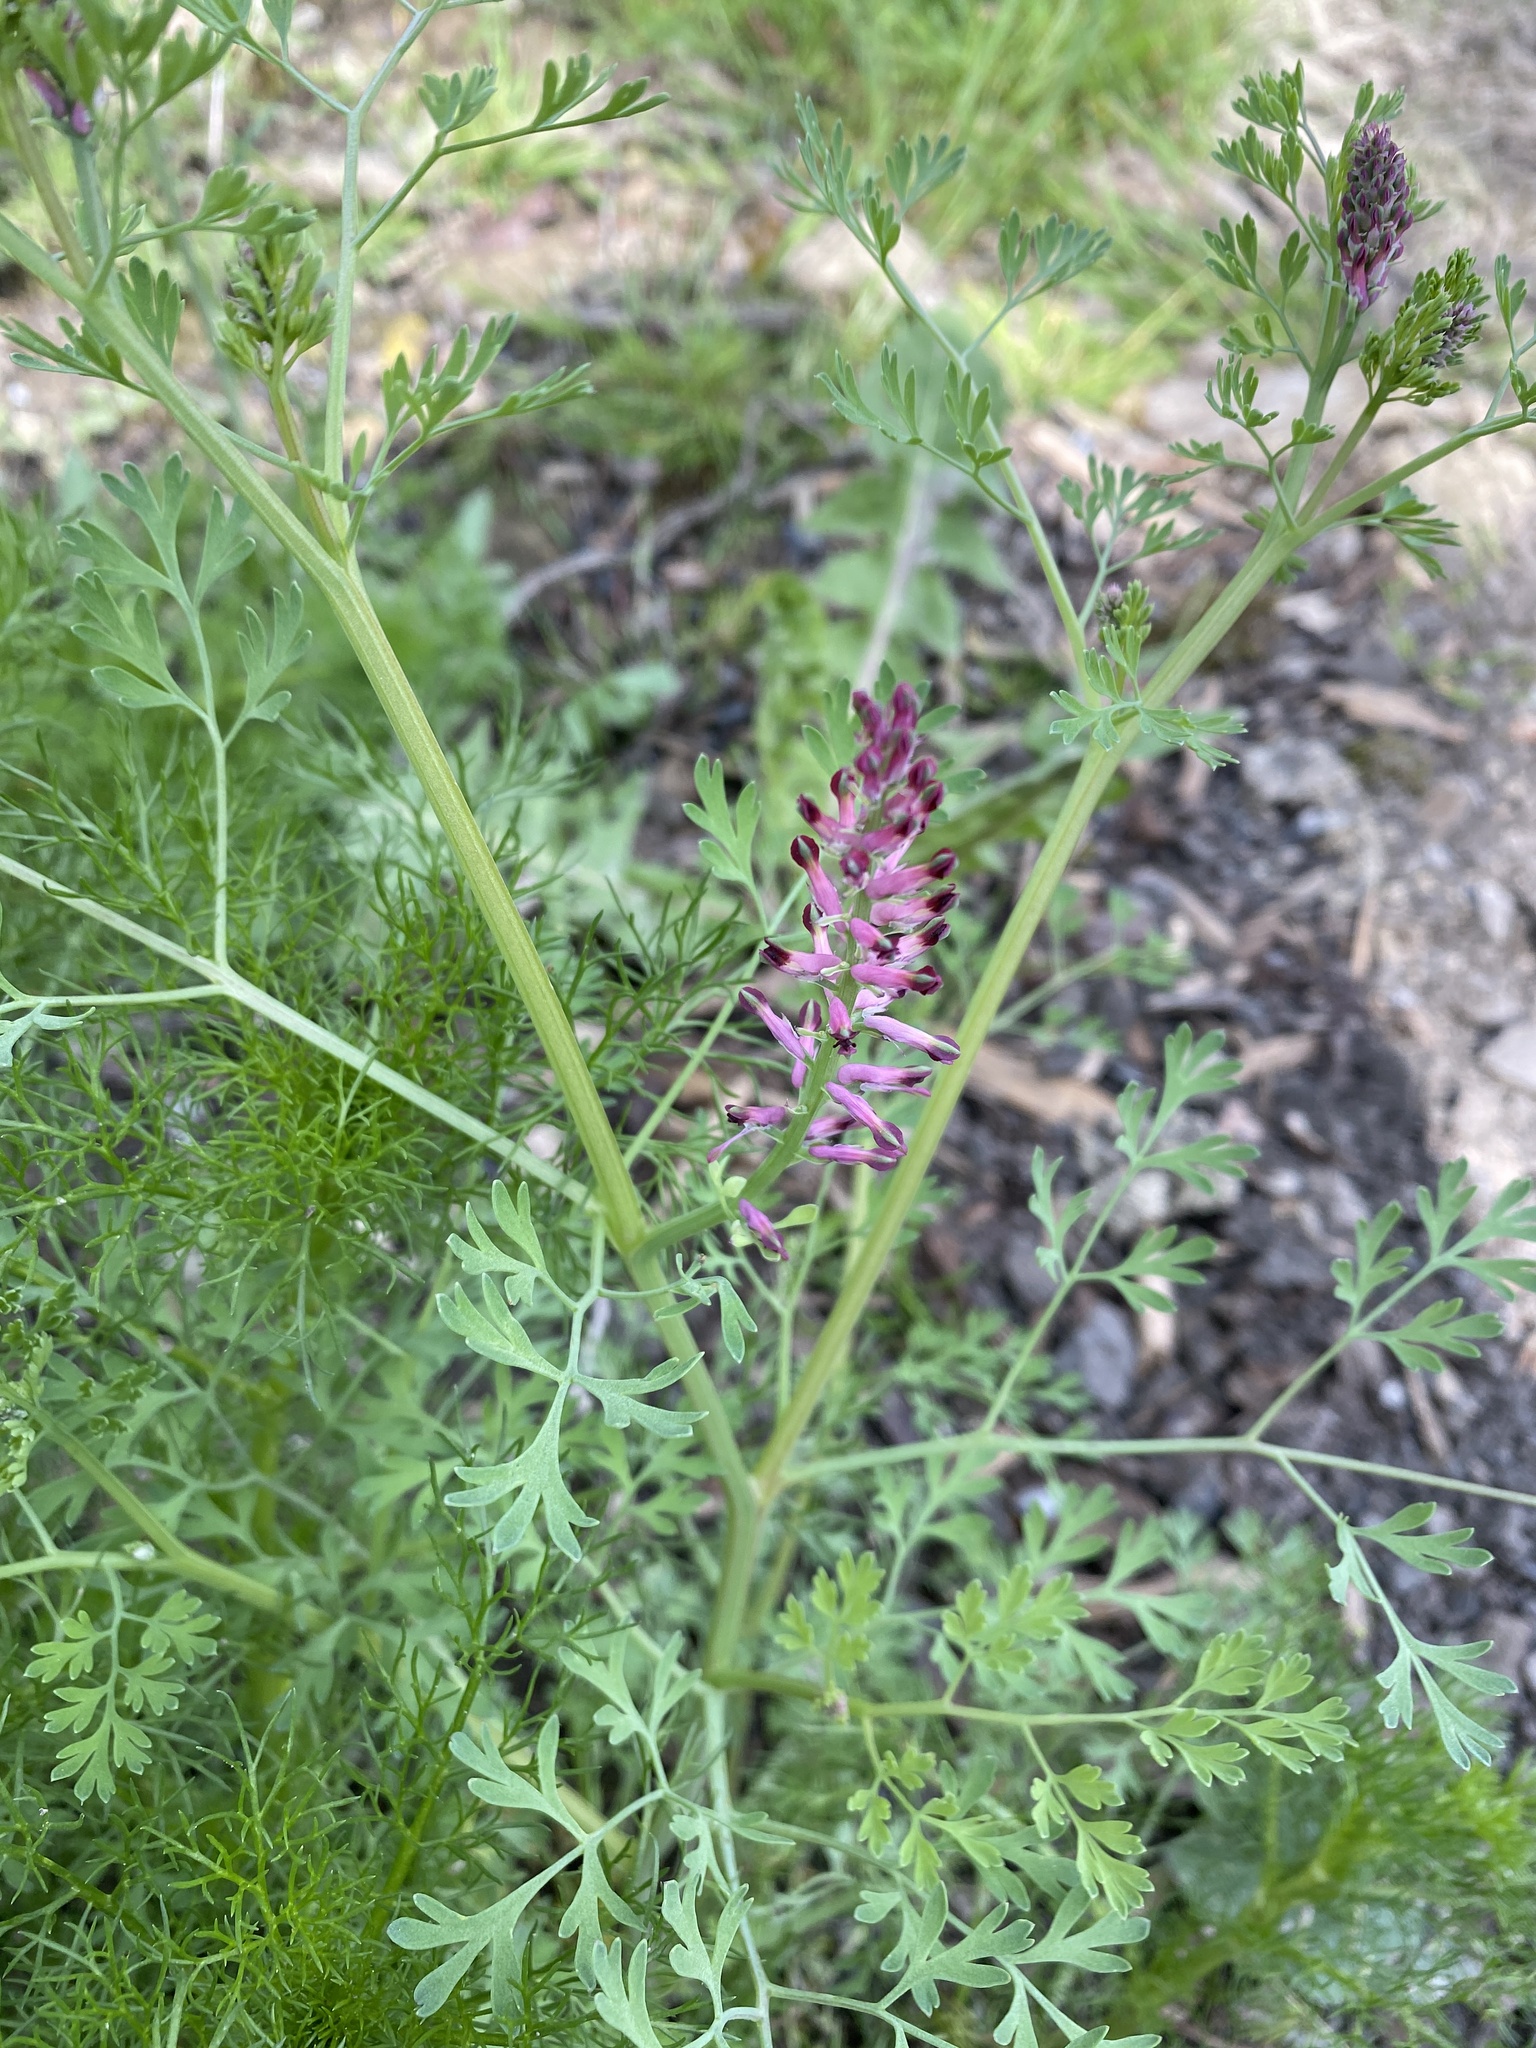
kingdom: Plantae
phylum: Tracheophyta
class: Magnoliopsida
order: Ranunculales
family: Papaveraceae
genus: Fumaria
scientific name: Fumaria officinalis
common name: Common fumitory
